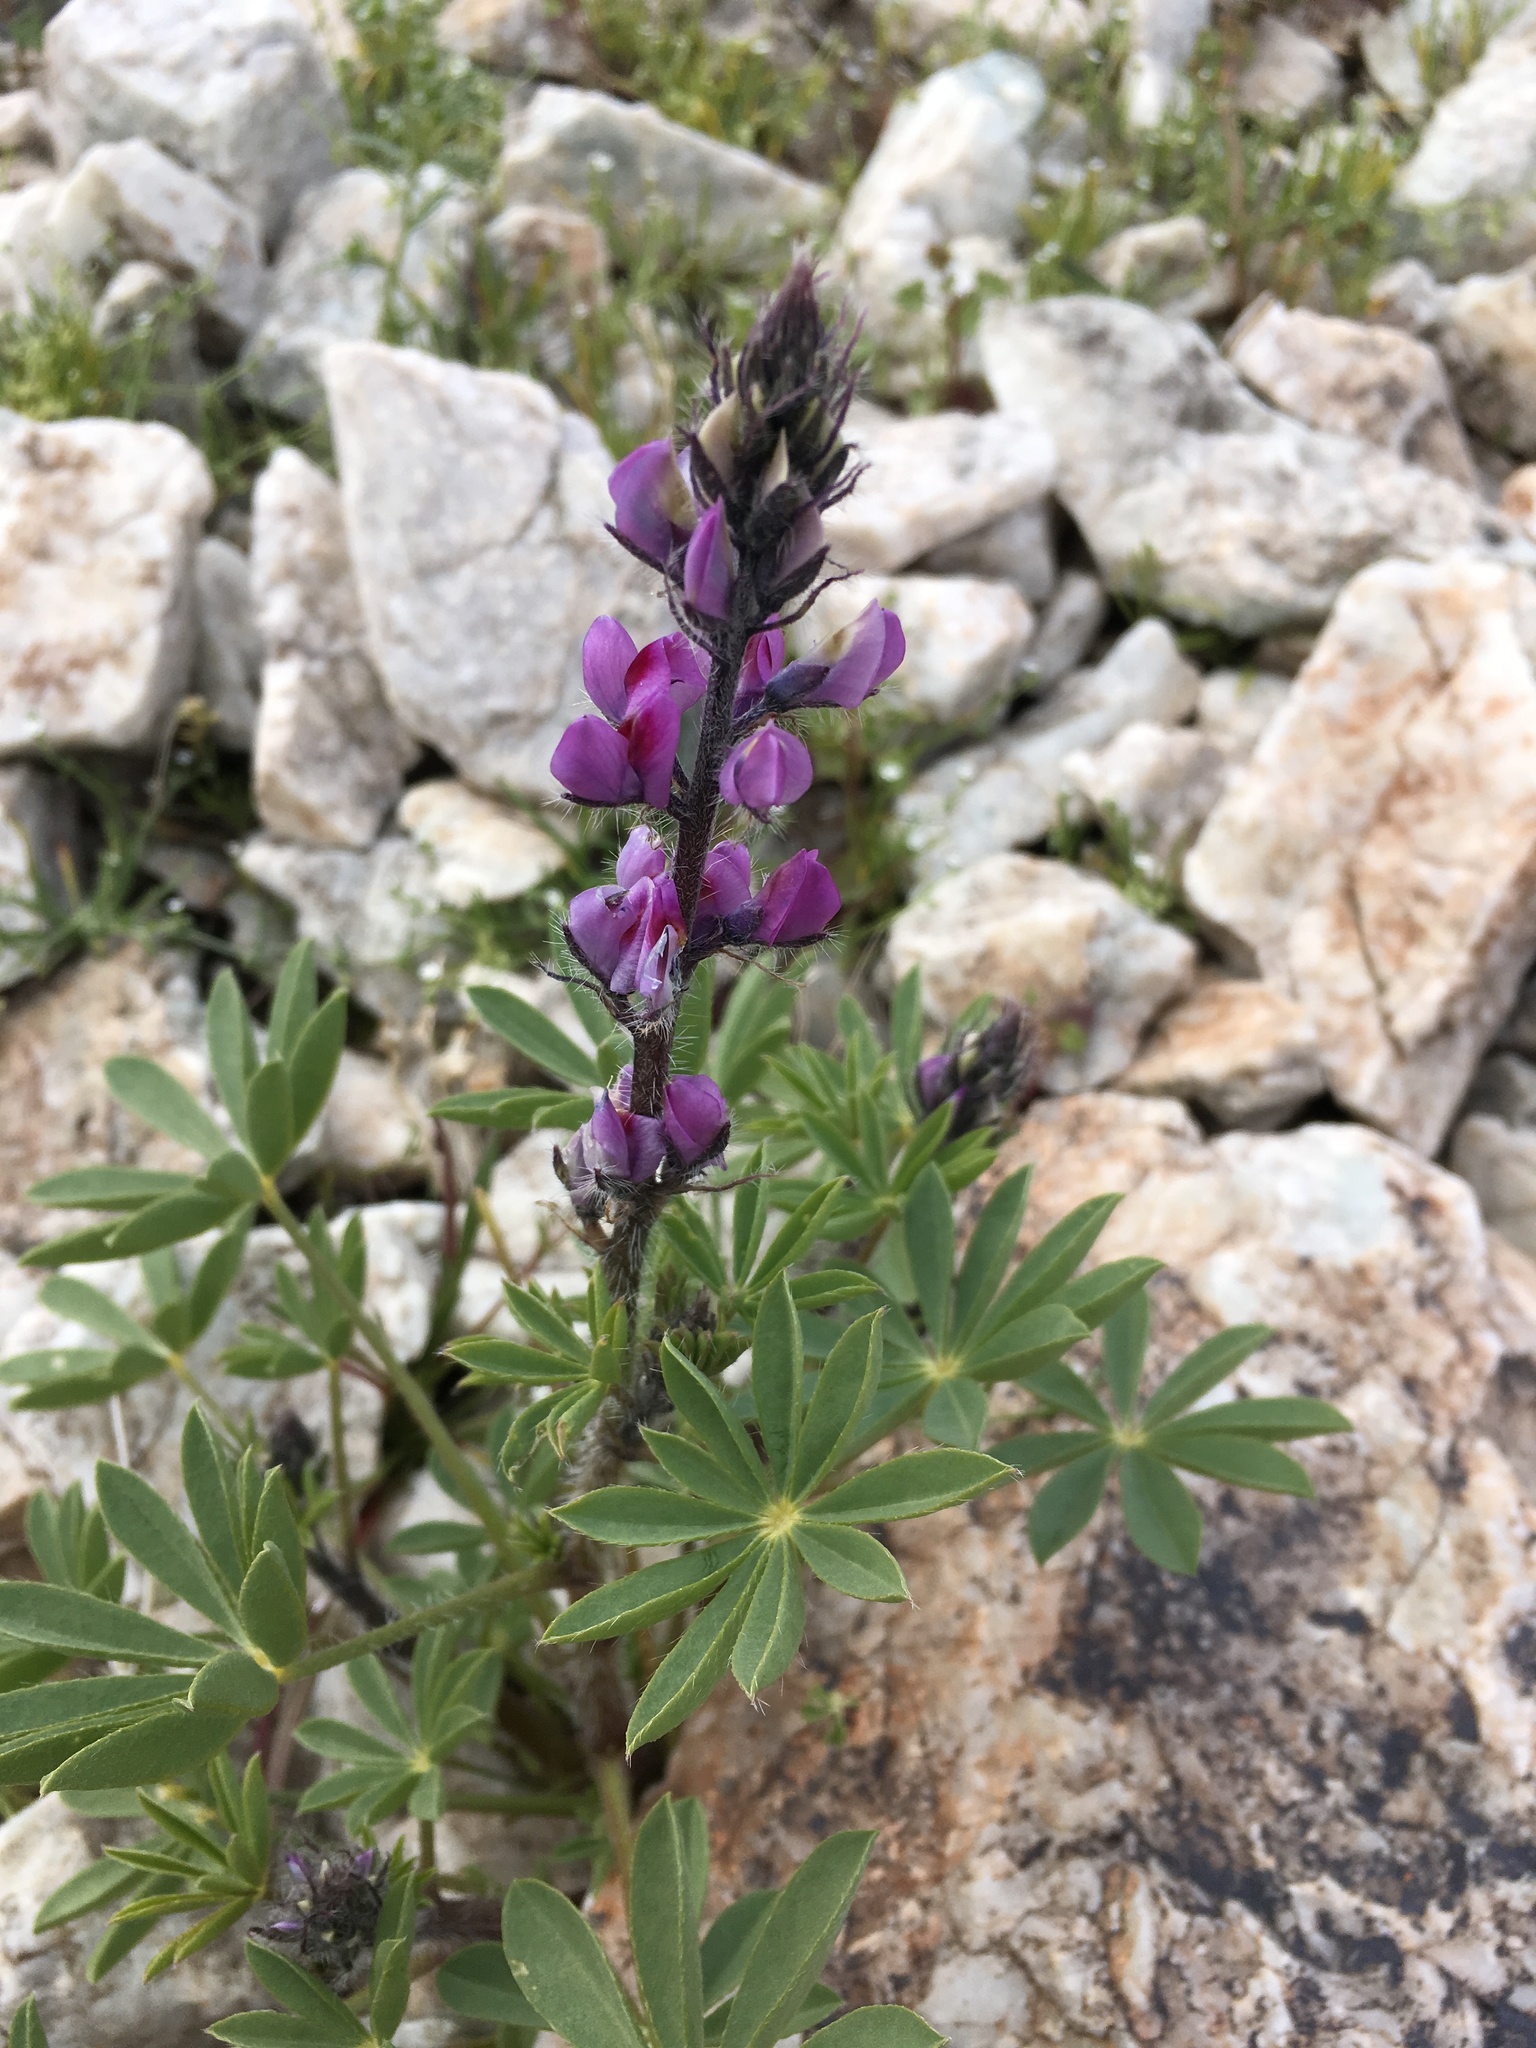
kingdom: Plantae
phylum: Tracheophyta
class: Magnoliopsida
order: Fabales
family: Fabaceae
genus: Lupinus
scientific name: Lupinus arizonicus
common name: Arizona lupine
